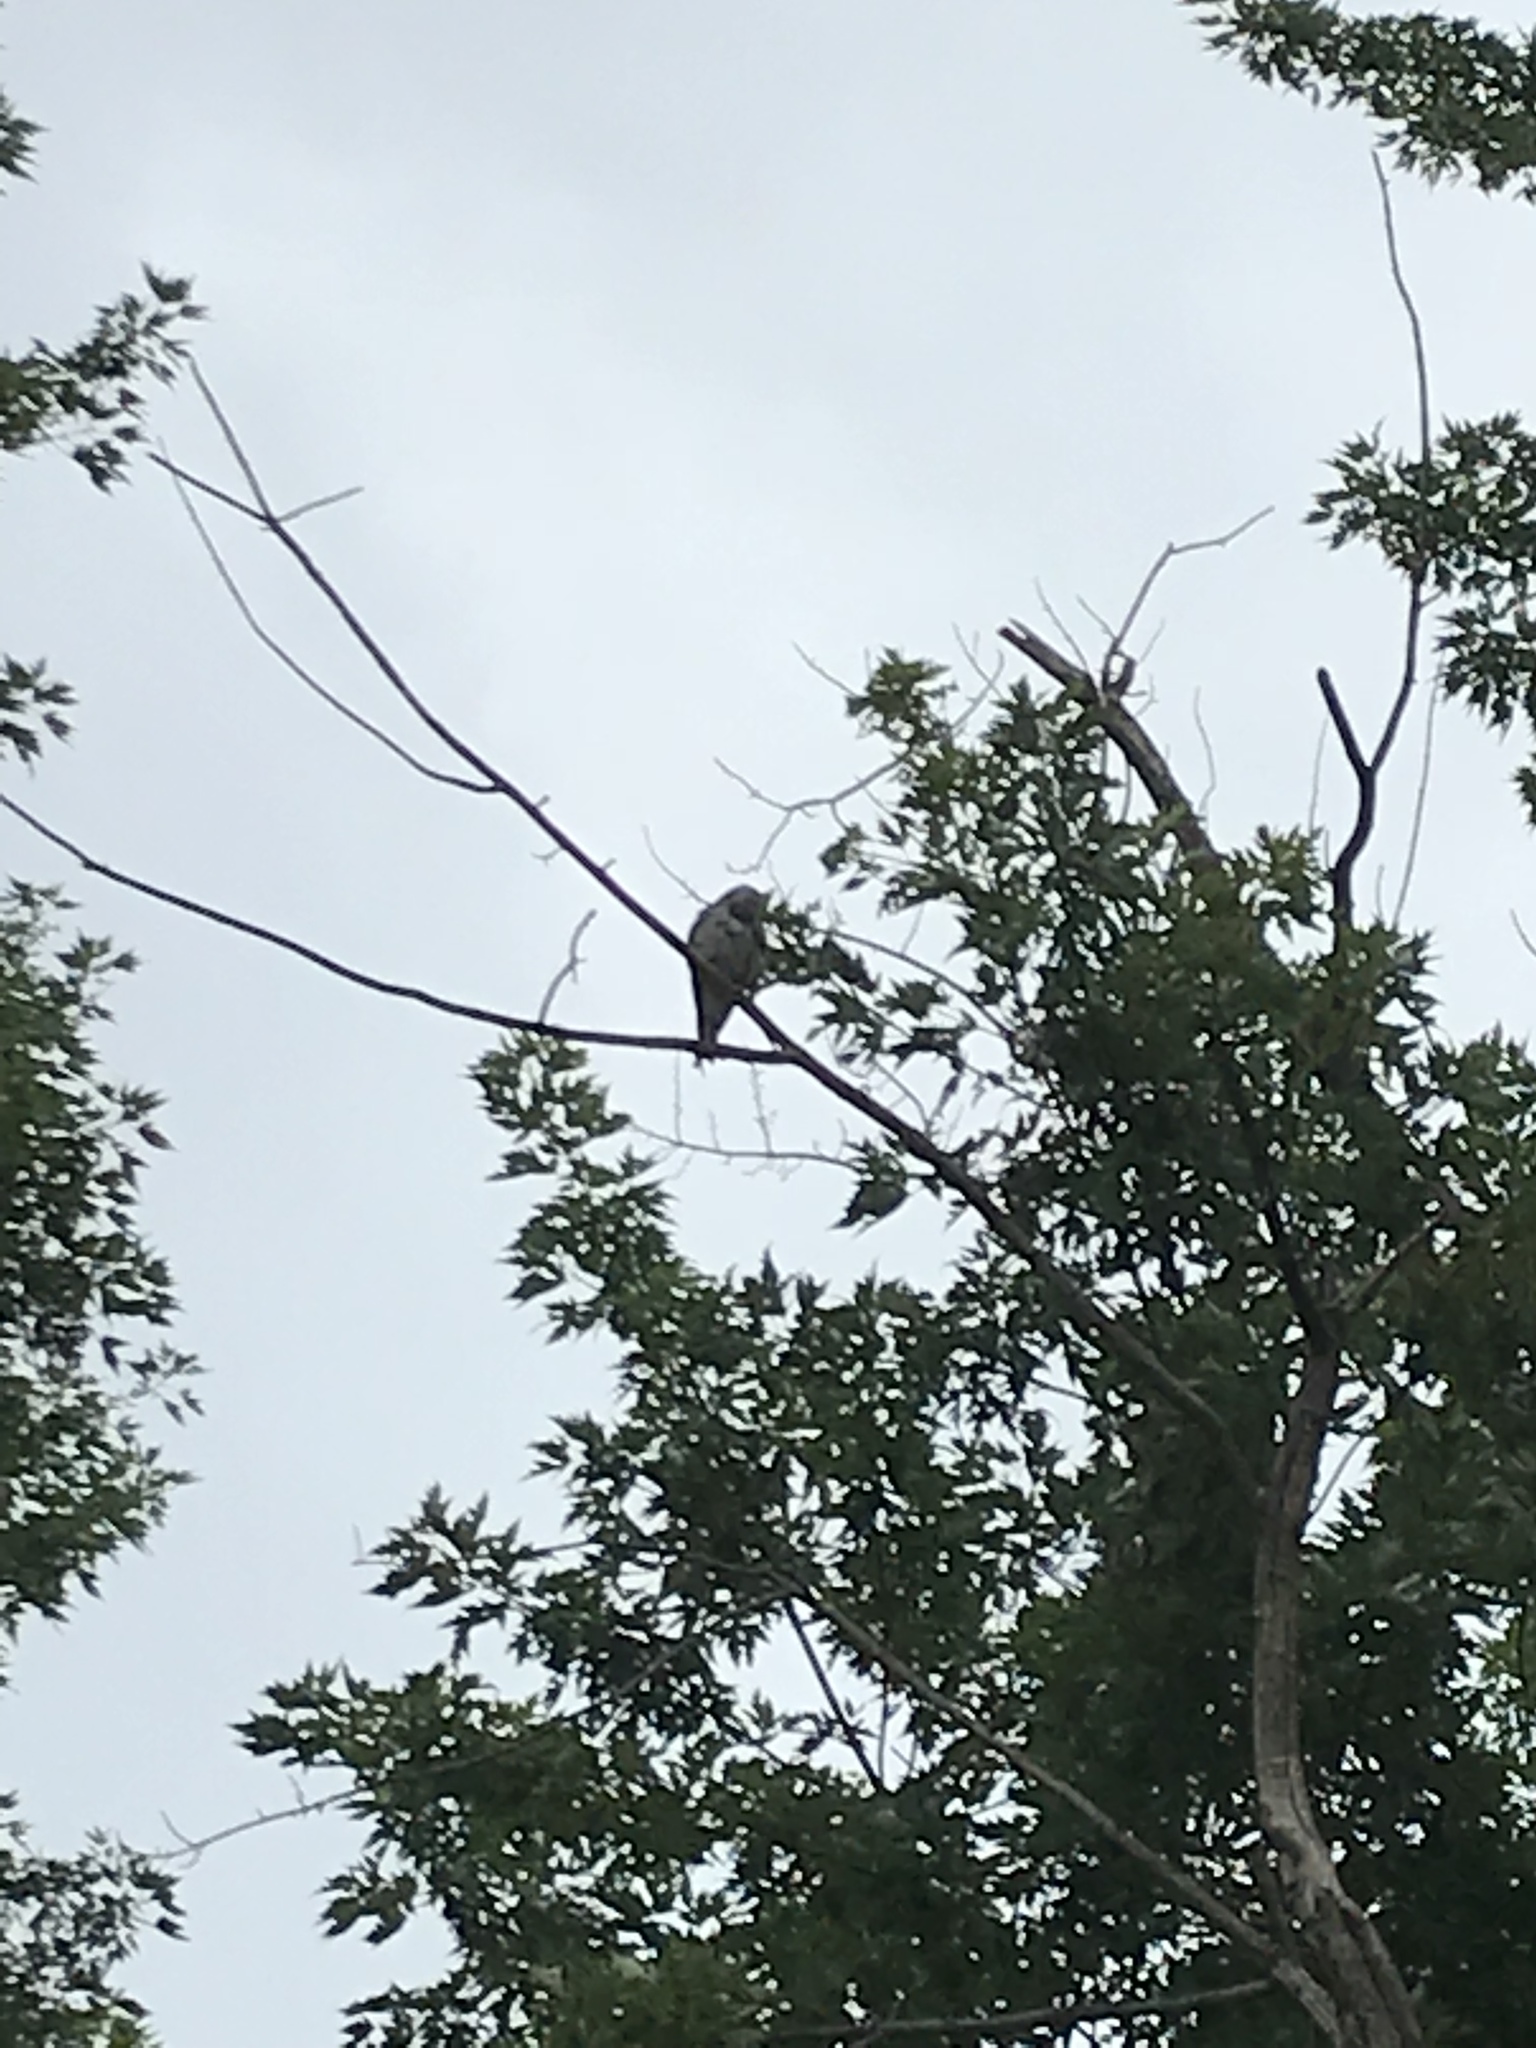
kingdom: Animalia
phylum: Chordata
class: Aves
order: Accipitriformes
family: Accipitridae
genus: Ictinia
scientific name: Ictinia mississippiensis
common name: Mississippi kite
